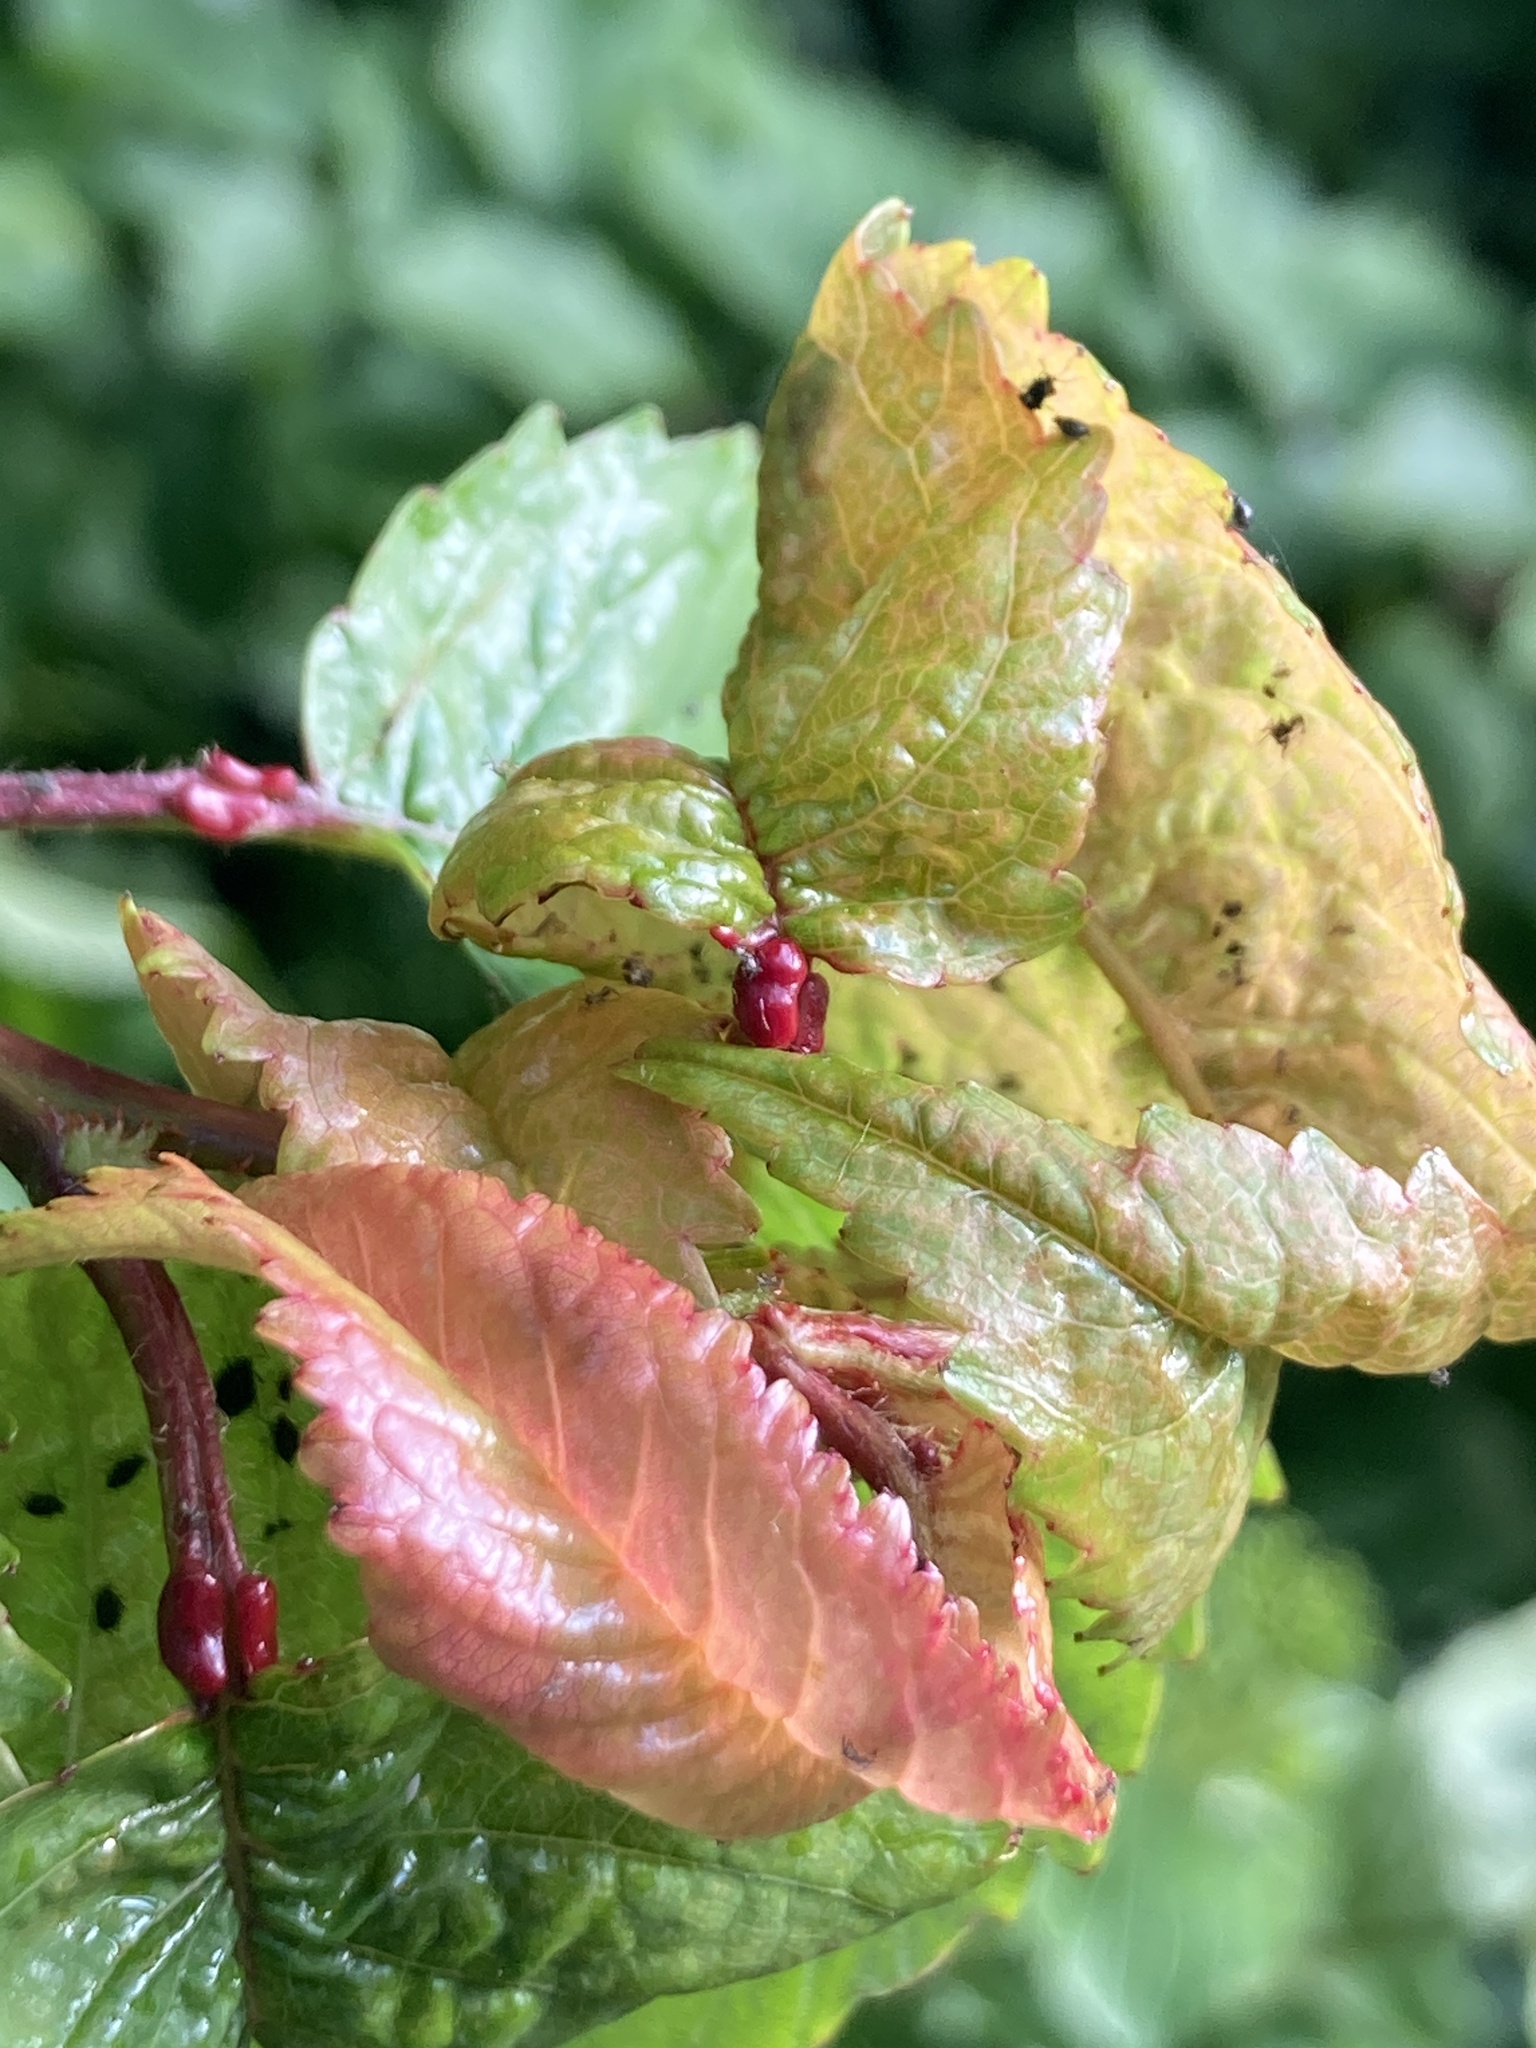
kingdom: Animalia
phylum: Arthropoda
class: Insecta
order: Hemiptera
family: Aphididae
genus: Myzus
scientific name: Myzus cerasi
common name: Black cherry aphid
